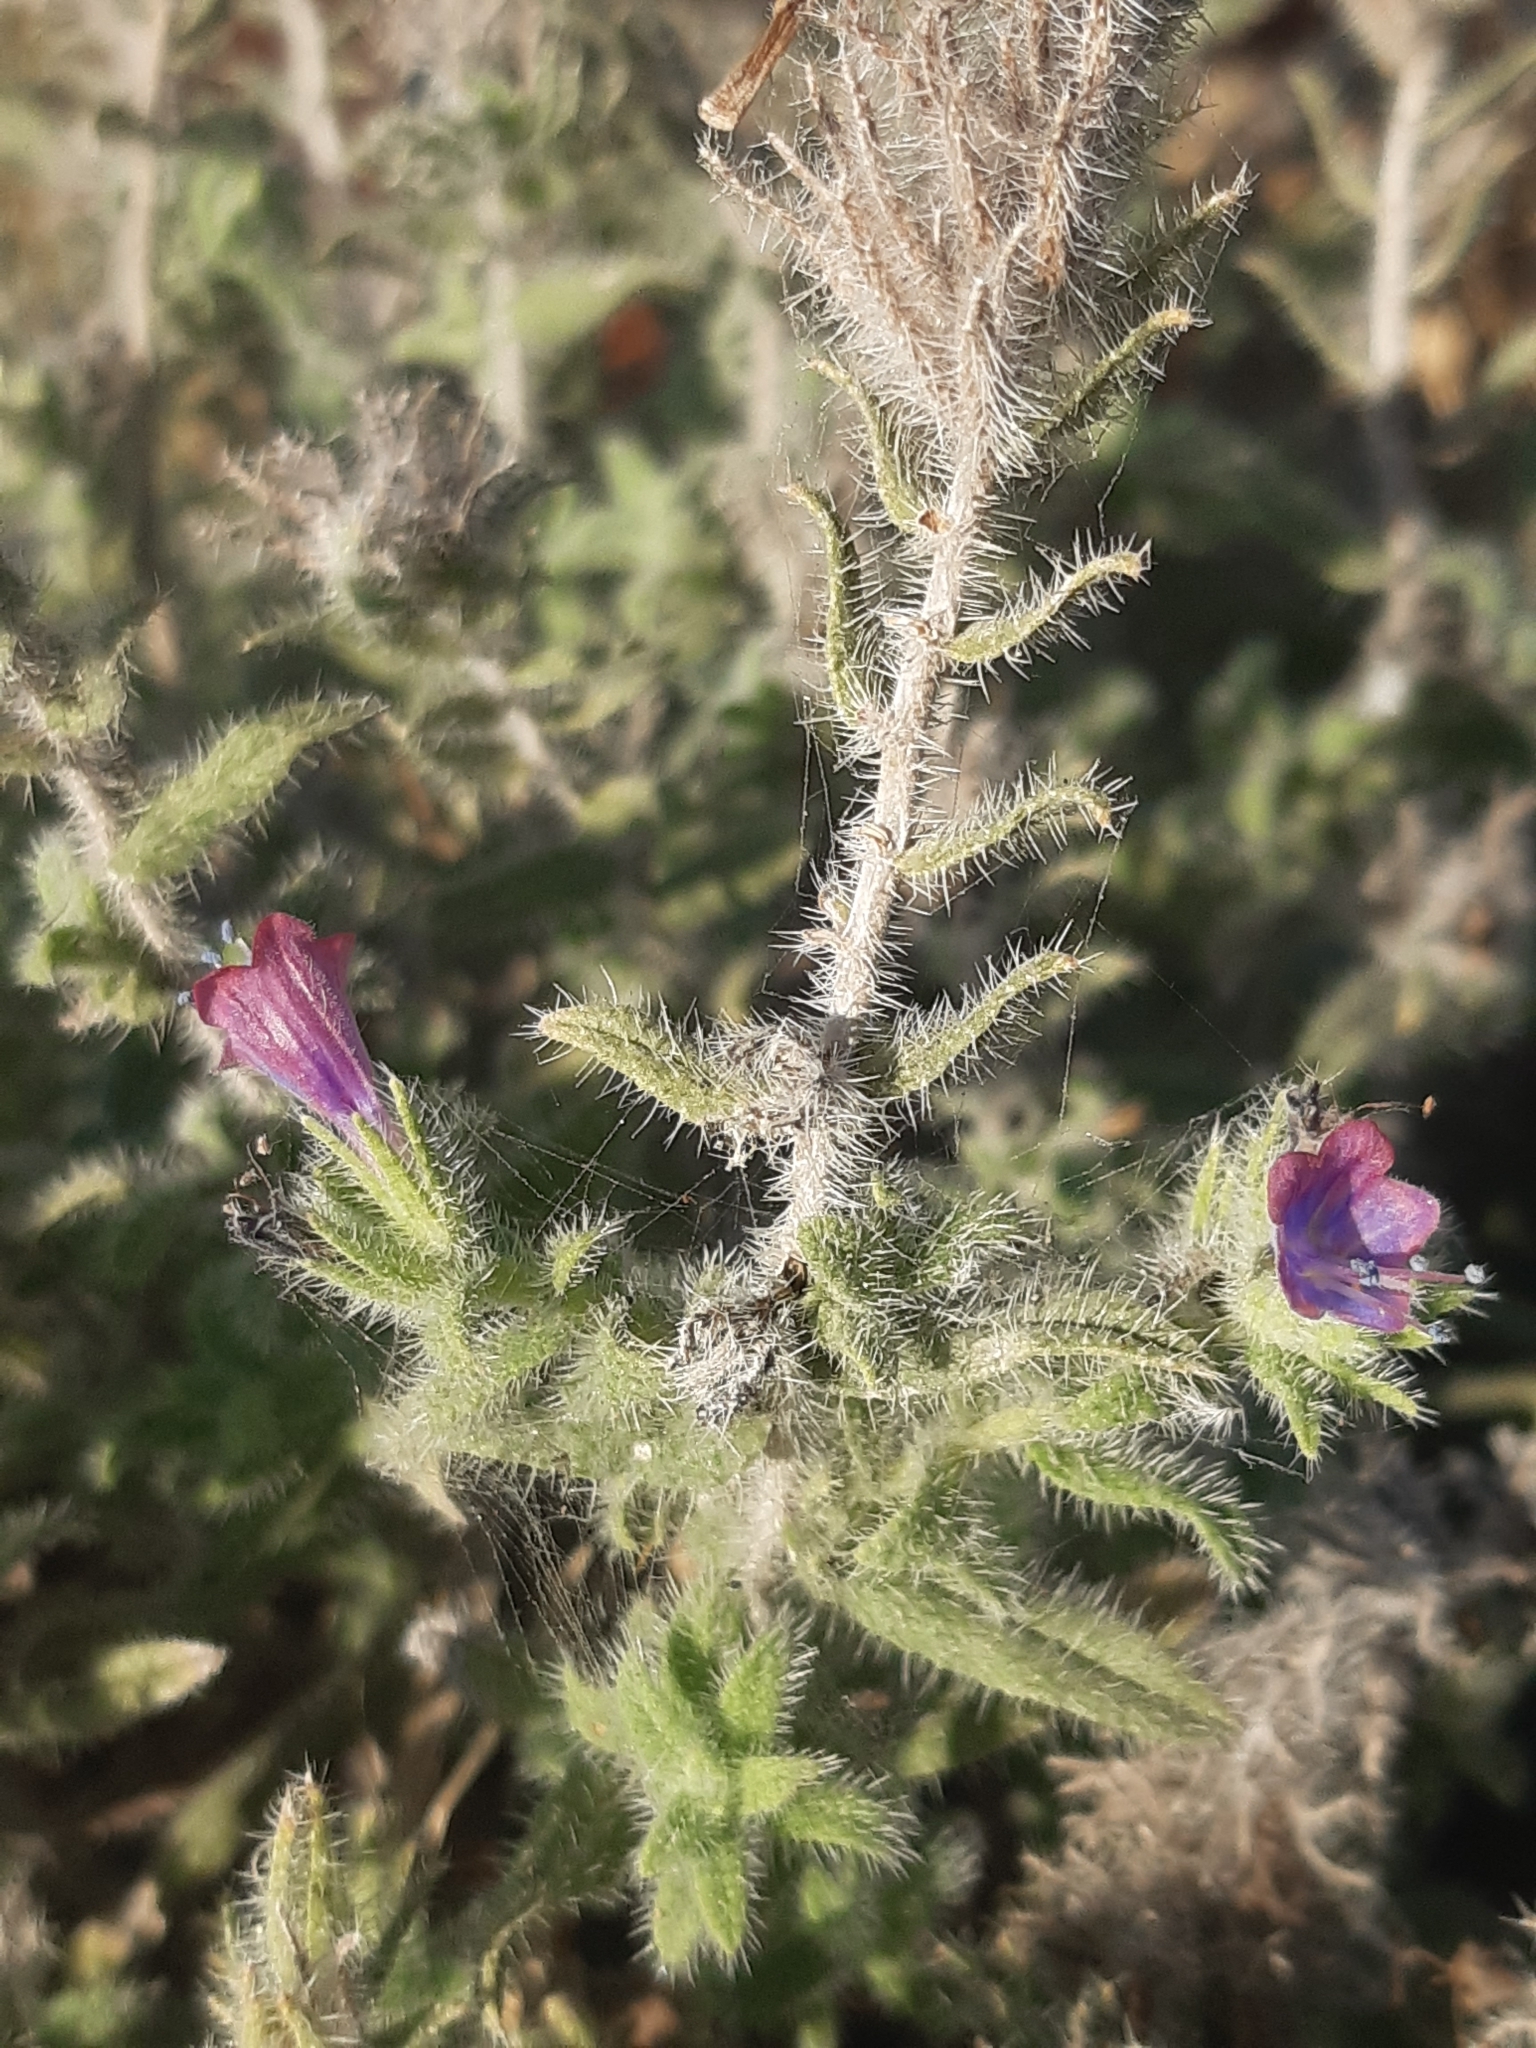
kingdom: Plantae
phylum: Tracheophyta
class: Magnoliopsida
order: Boraginales
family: Boraginaceae
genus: Echium
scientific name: Echium angustifolium
